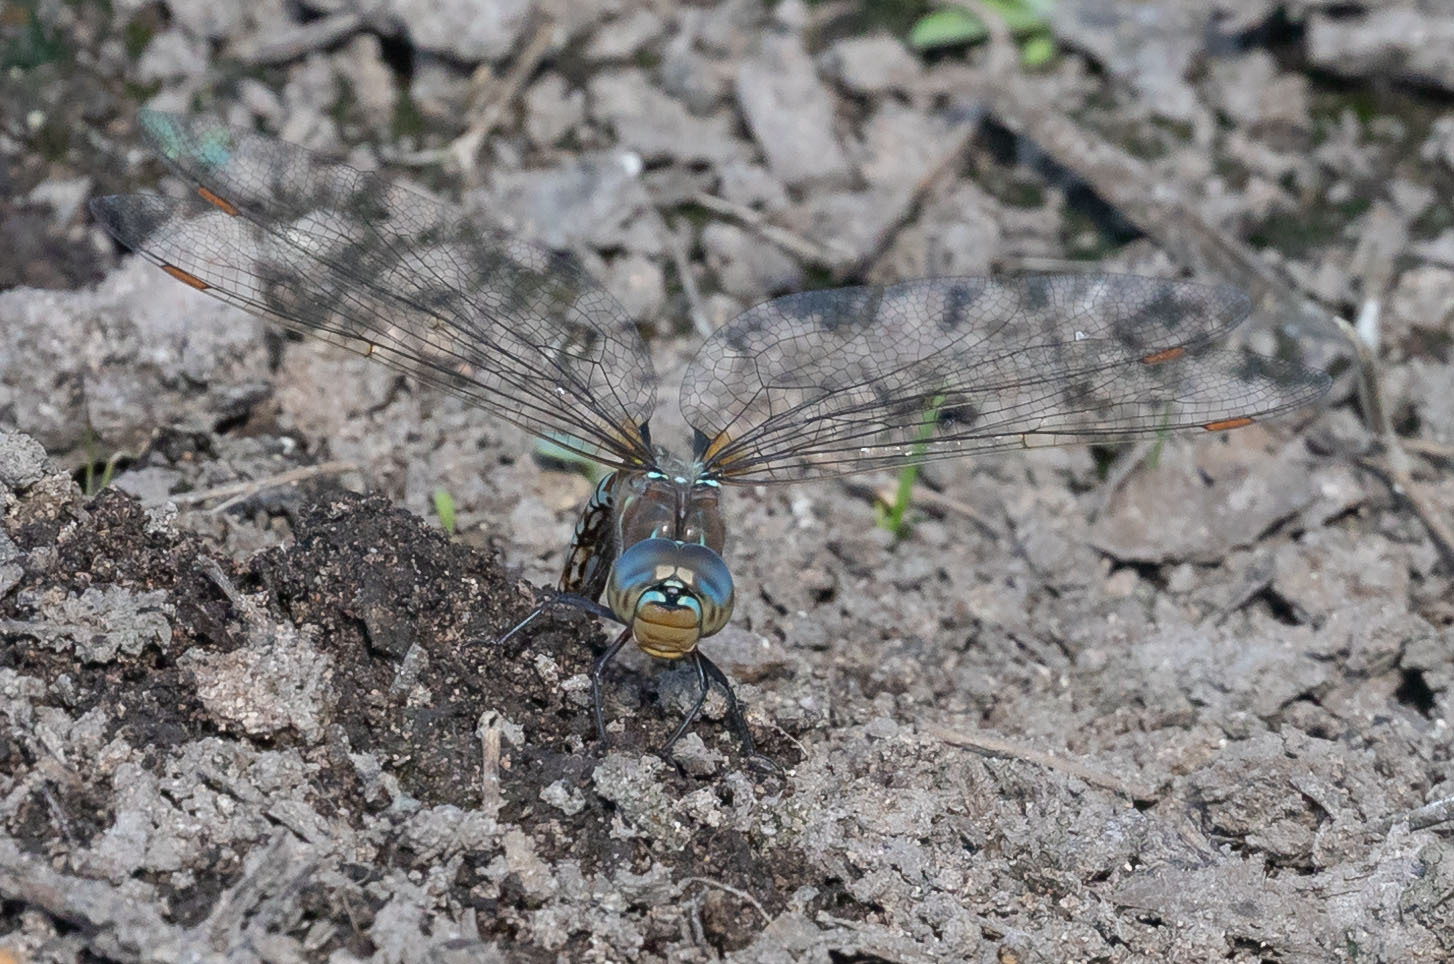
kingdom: Animalia
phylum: Arthropoda
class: Insecta
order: Odonata
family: Aeshnidae
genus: Rhionaeschna
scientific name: Rhionaeschna multicolor
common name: Blue-eyed darner
